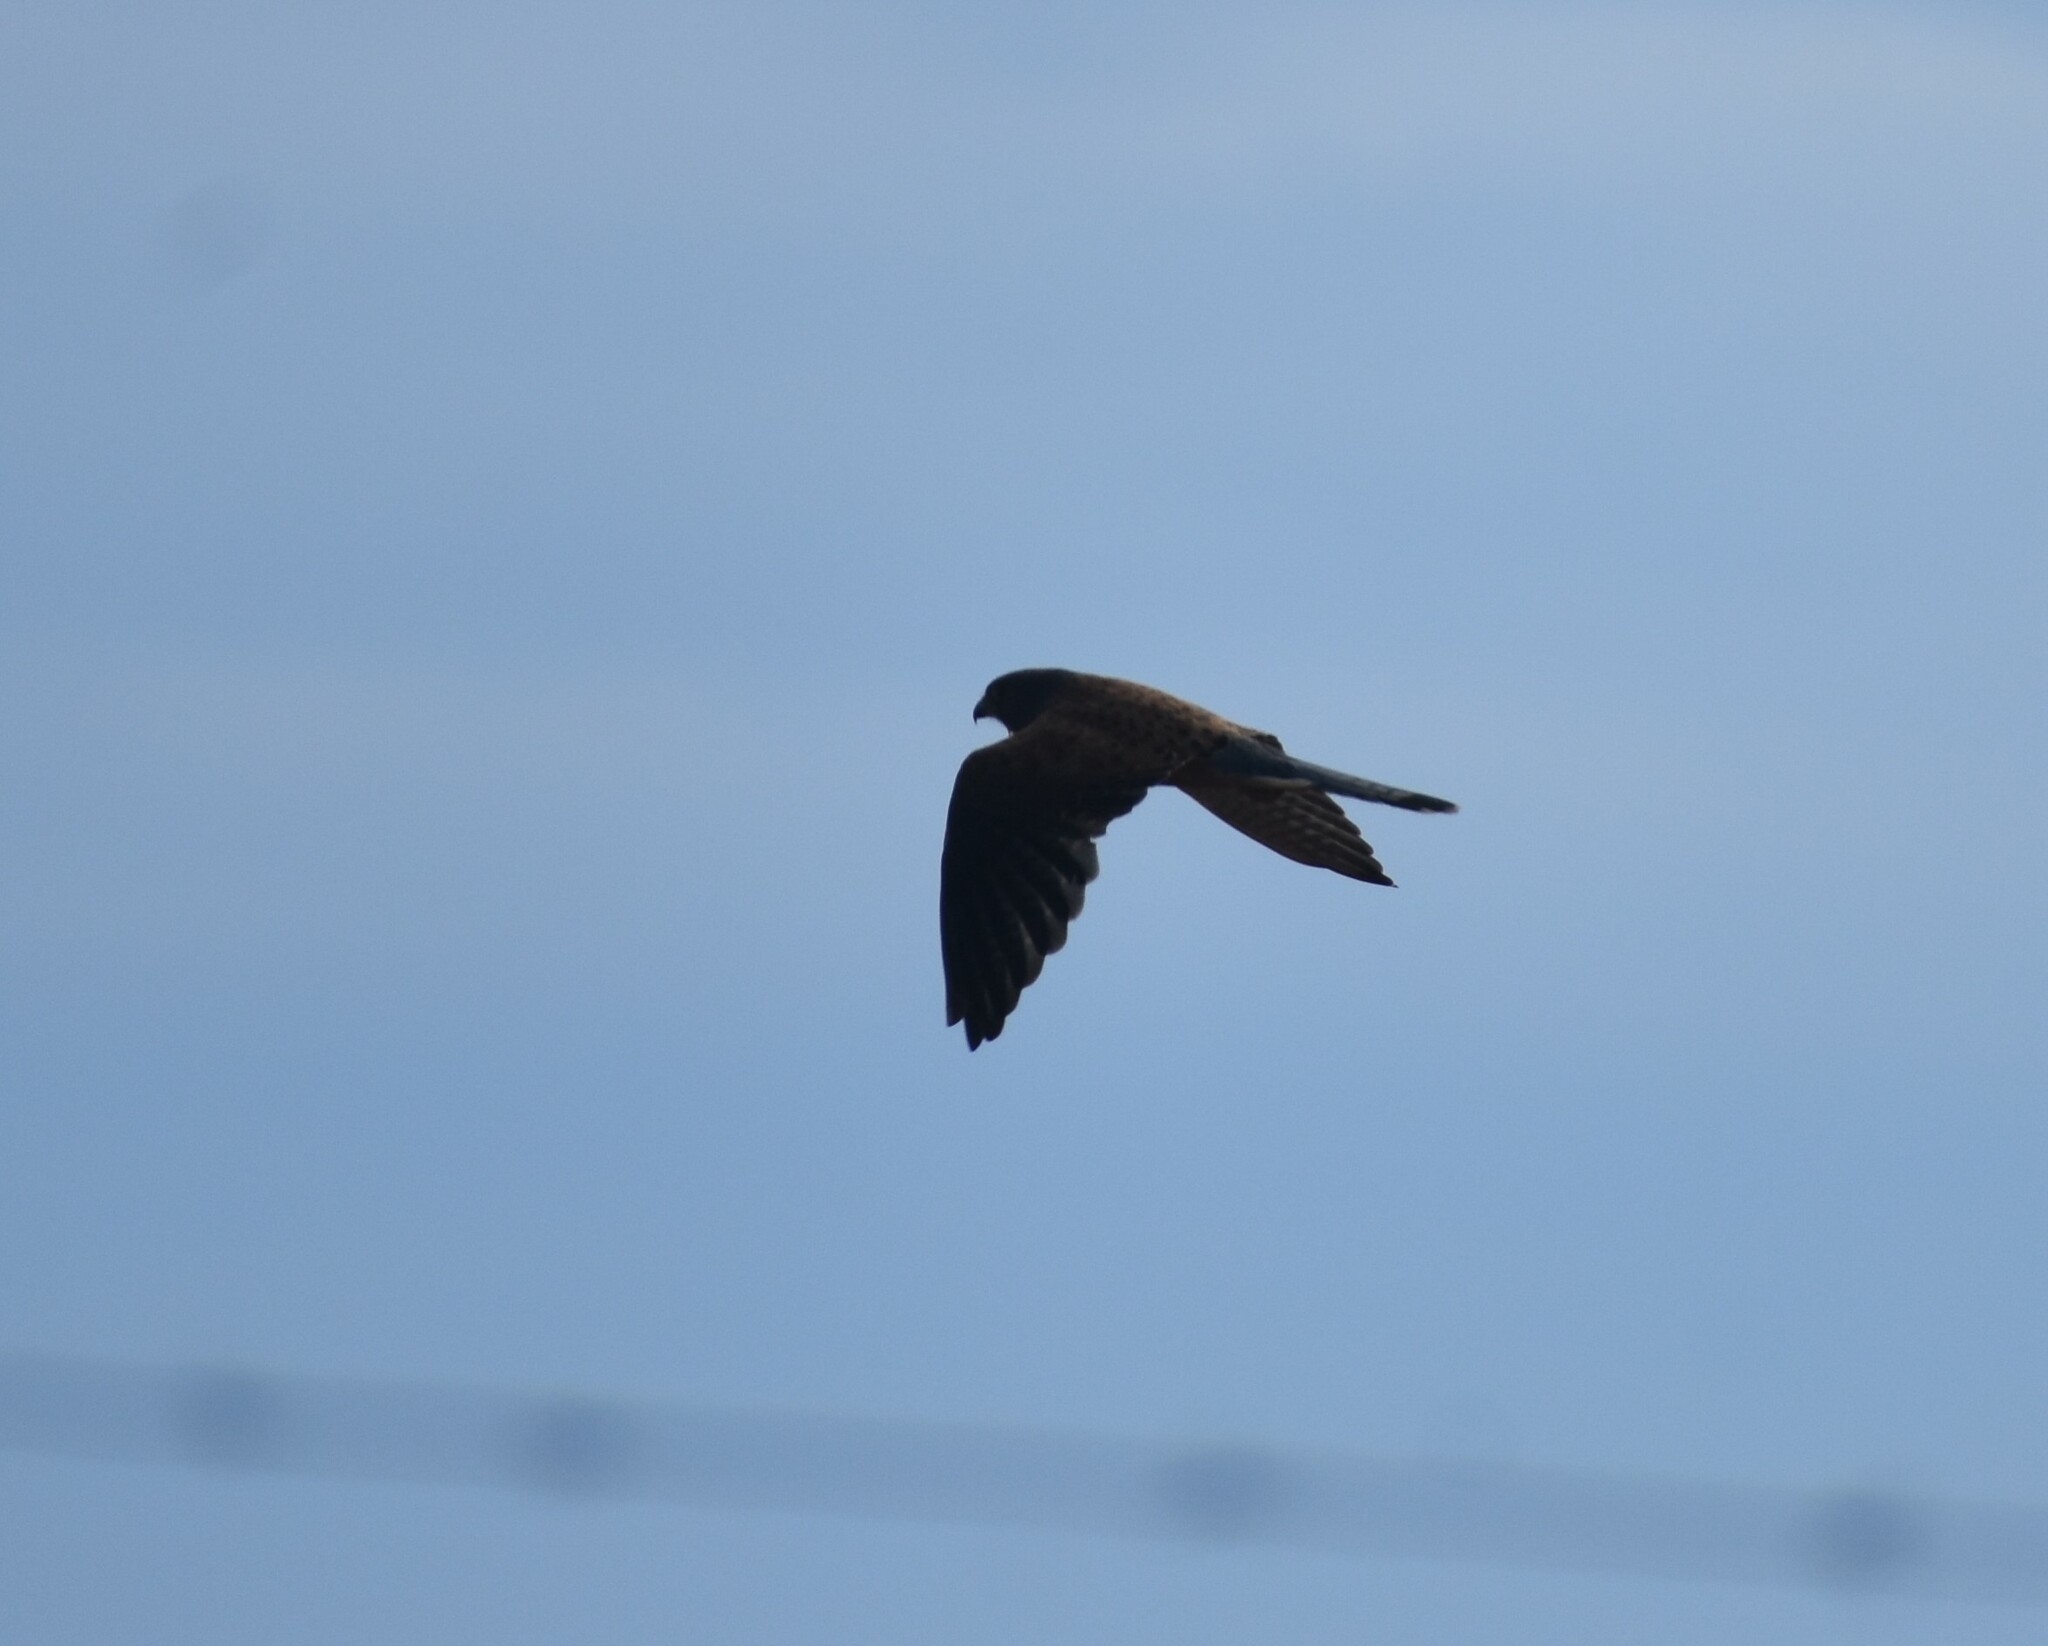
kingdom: Animalia
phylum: Chordata
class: Aves
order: Falconiformes
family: Falconidae
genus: Falco
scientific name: Falco rupicolus
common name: Rock kestrel
